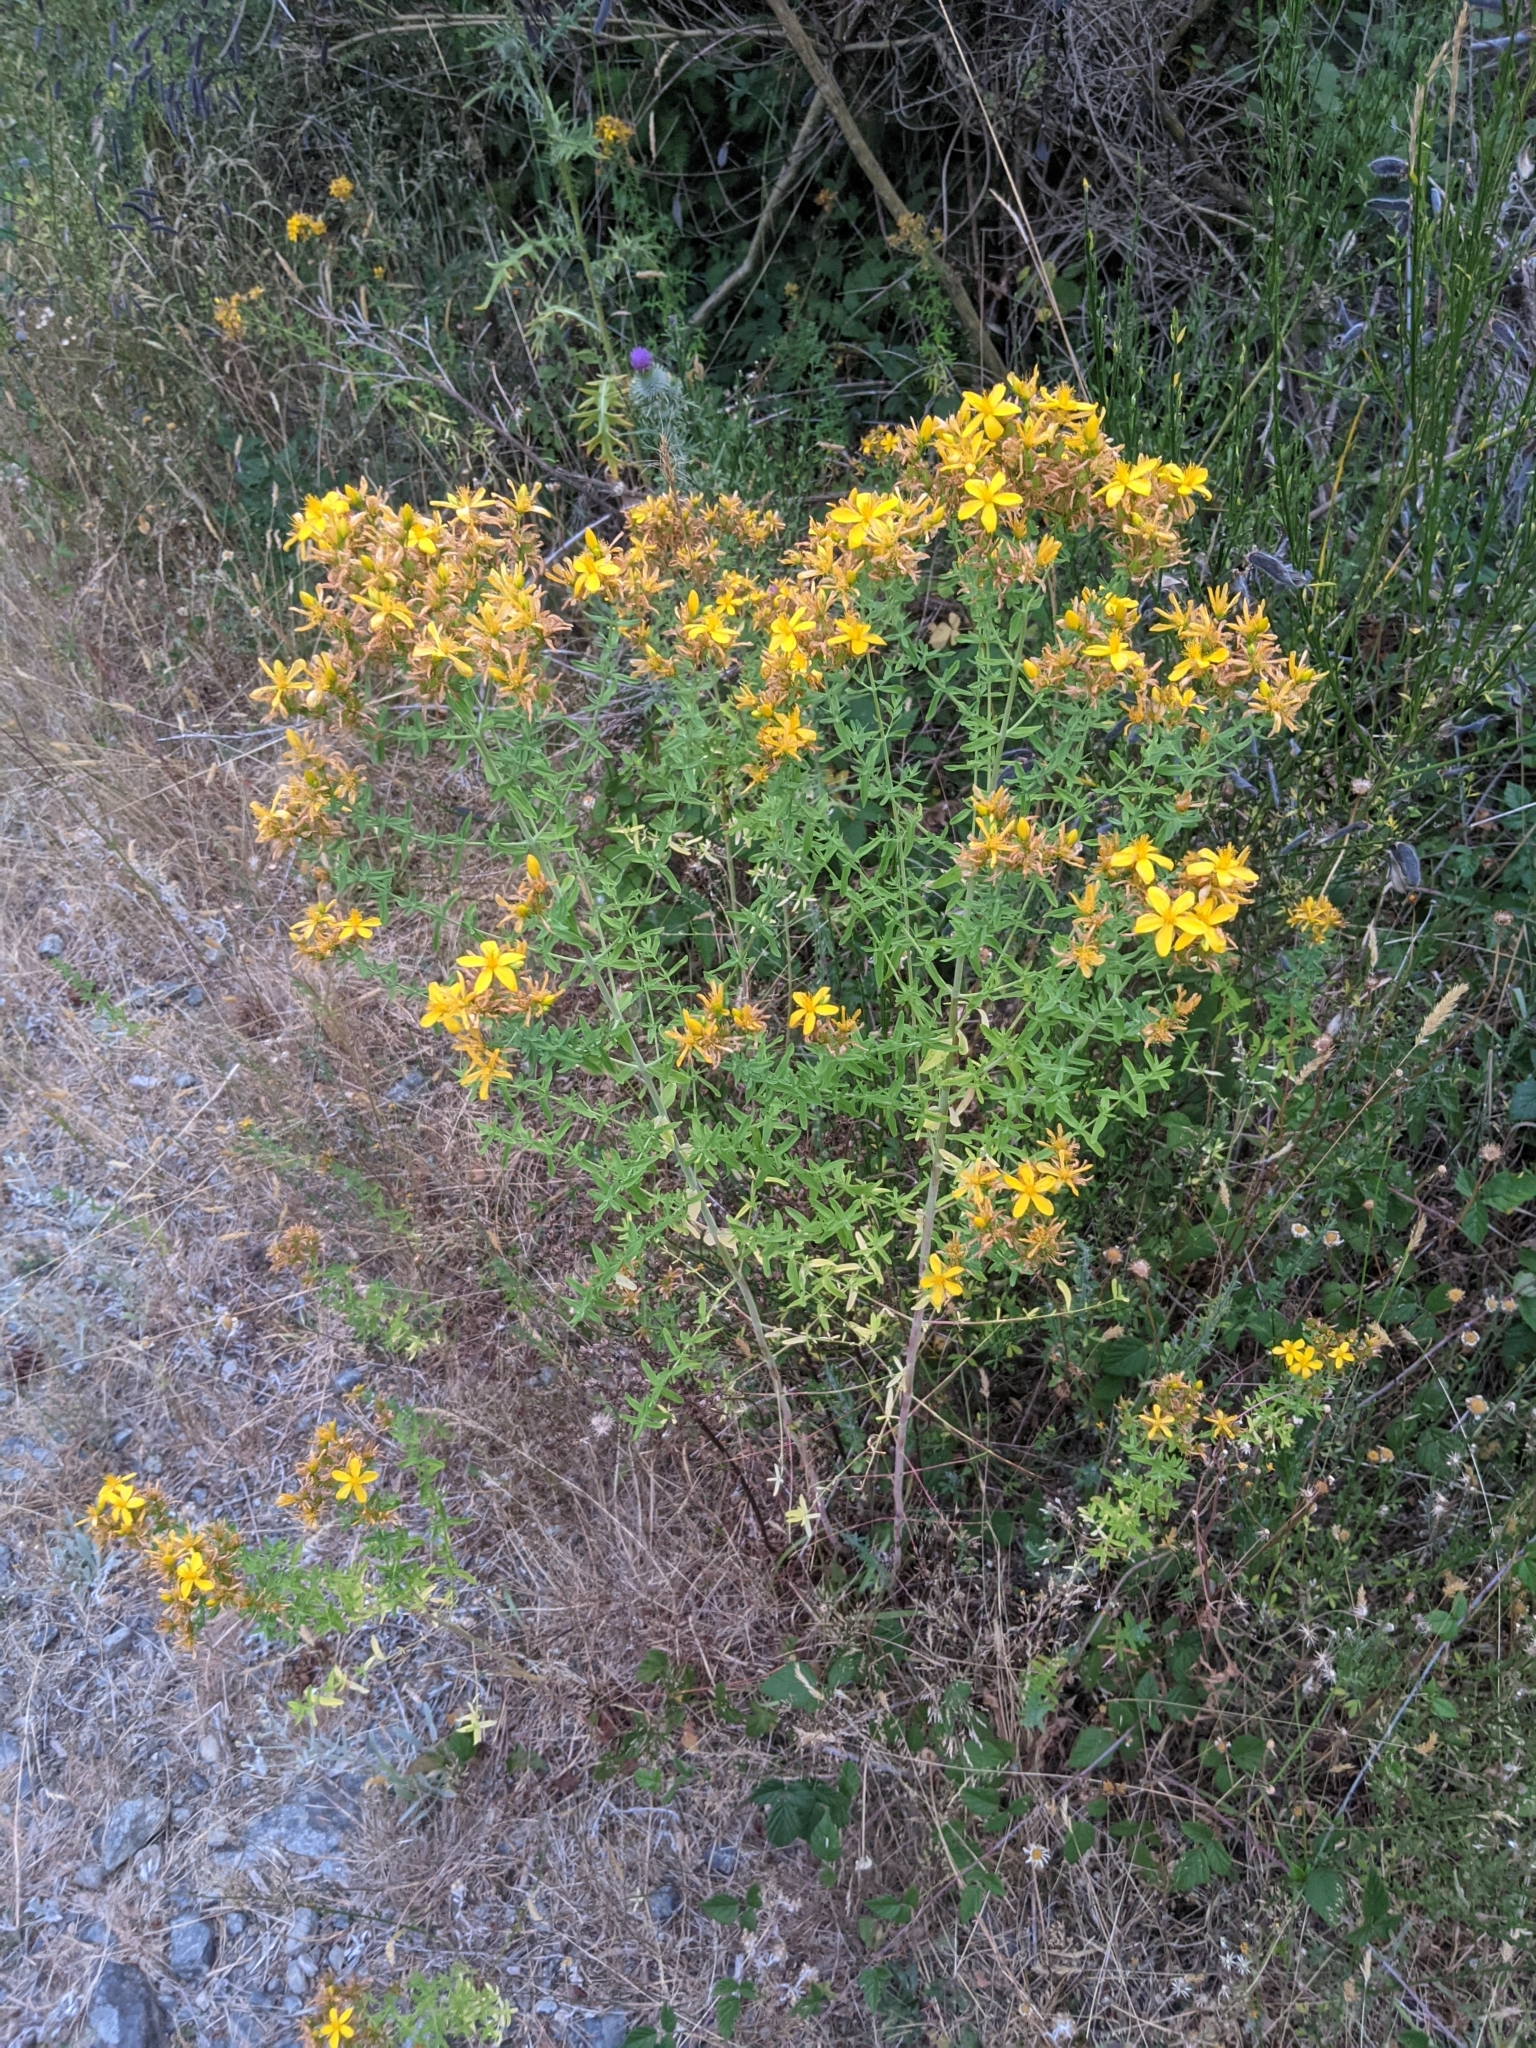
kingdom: Plantae
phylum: Tracheophyta
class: Magnoliopsida
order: Malpighiales
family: Hypericaceae
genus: Hypericum
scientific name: Hypericum perforatum
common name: Common st. johnswort
